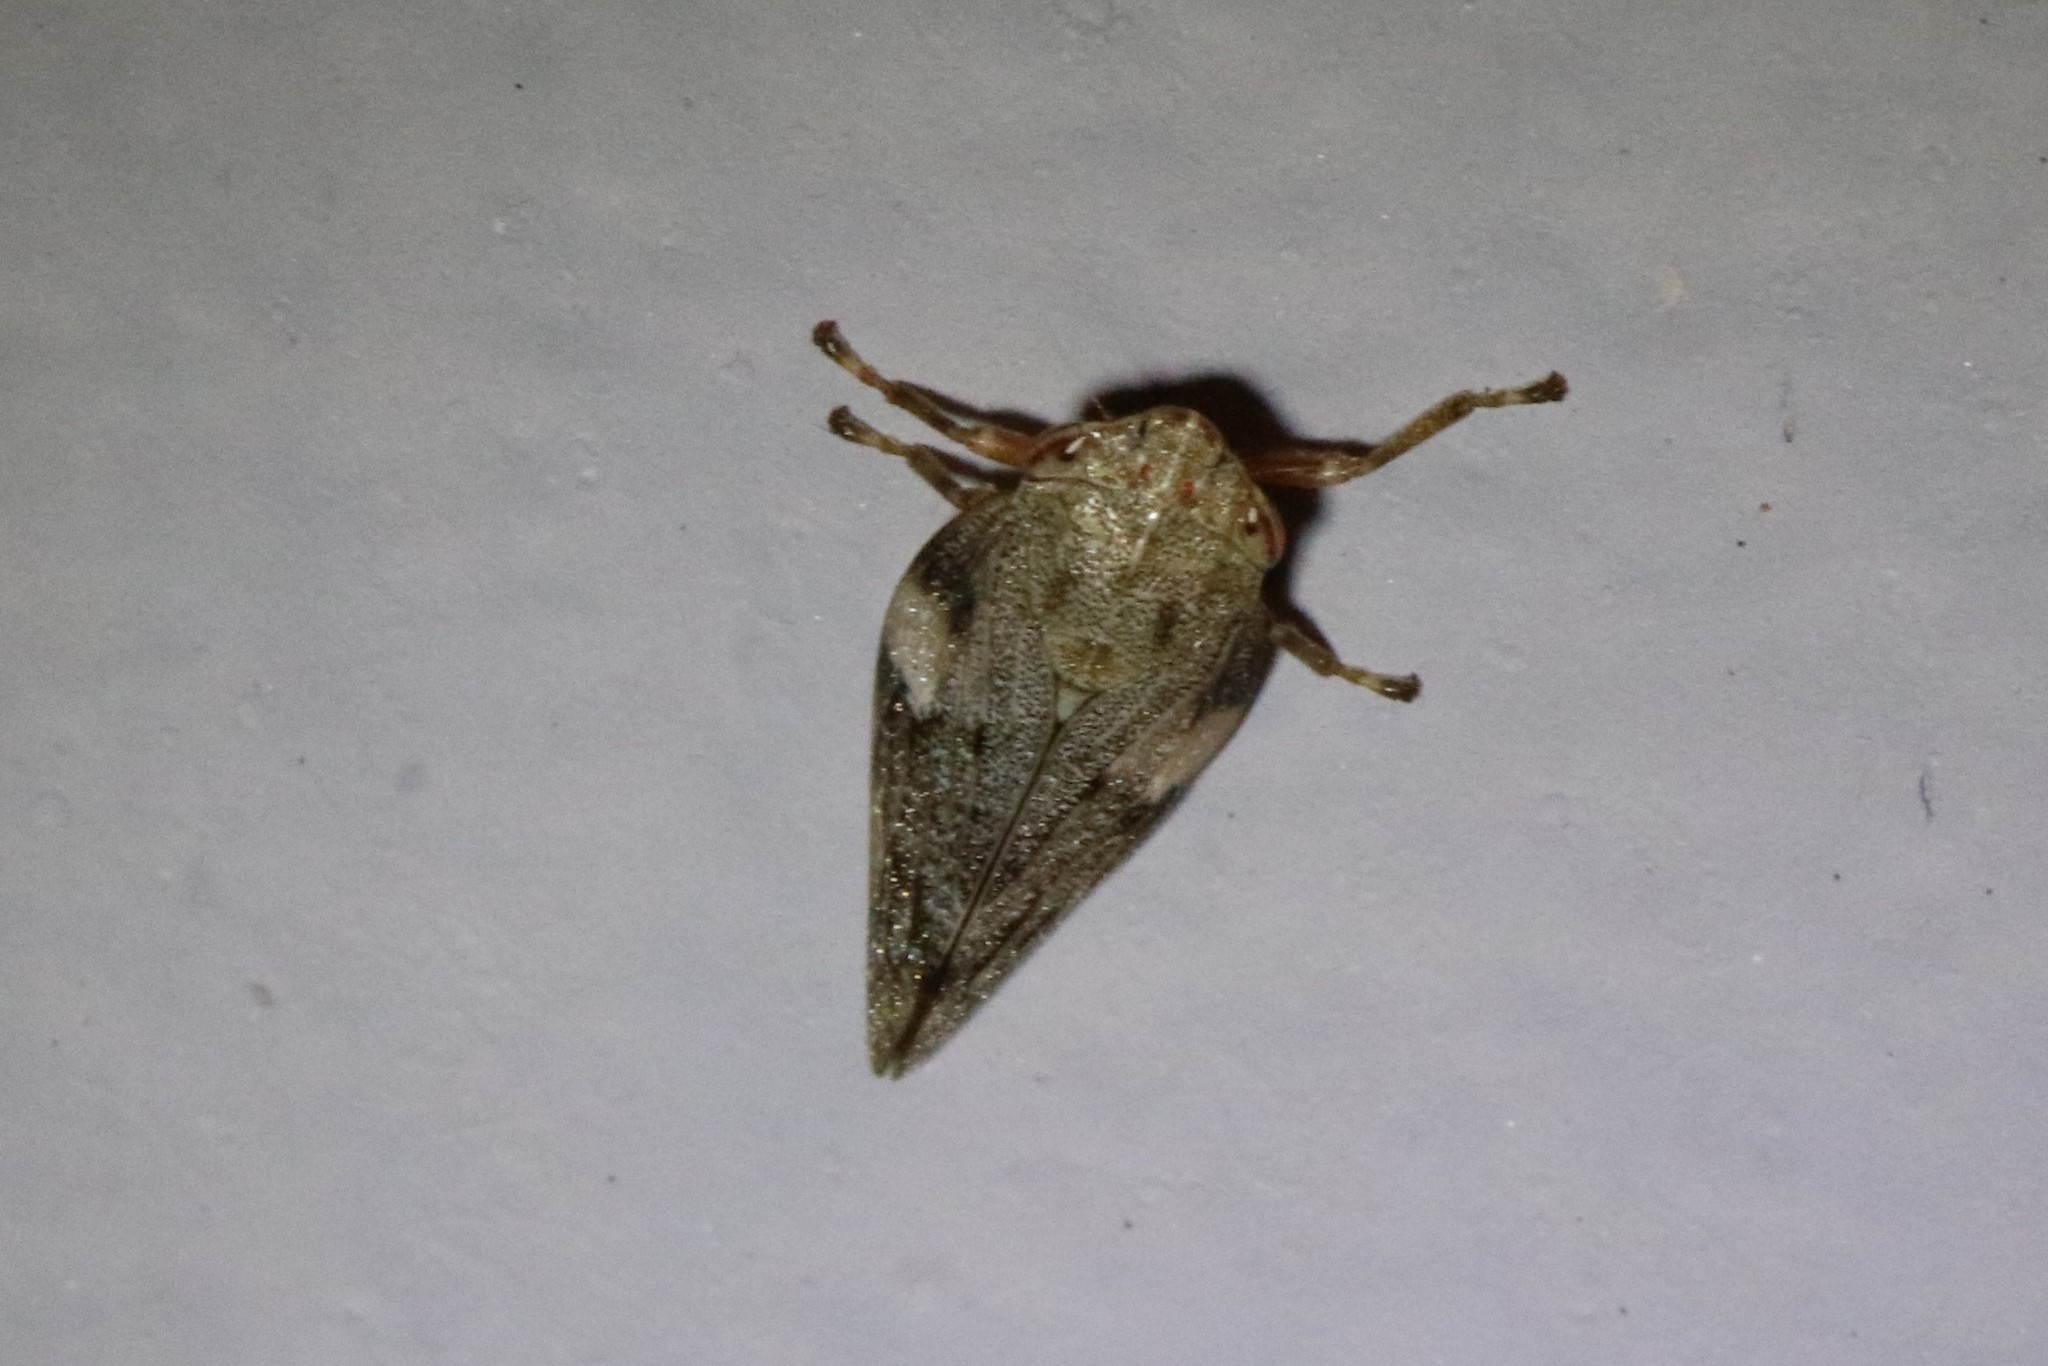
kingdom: Animalia
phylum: Arthropoda
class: Insecta
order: Hemiptera
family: Aphrophoridae
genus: Aphrophora
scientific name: Aphrophora alni
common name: European alder spittlebug
